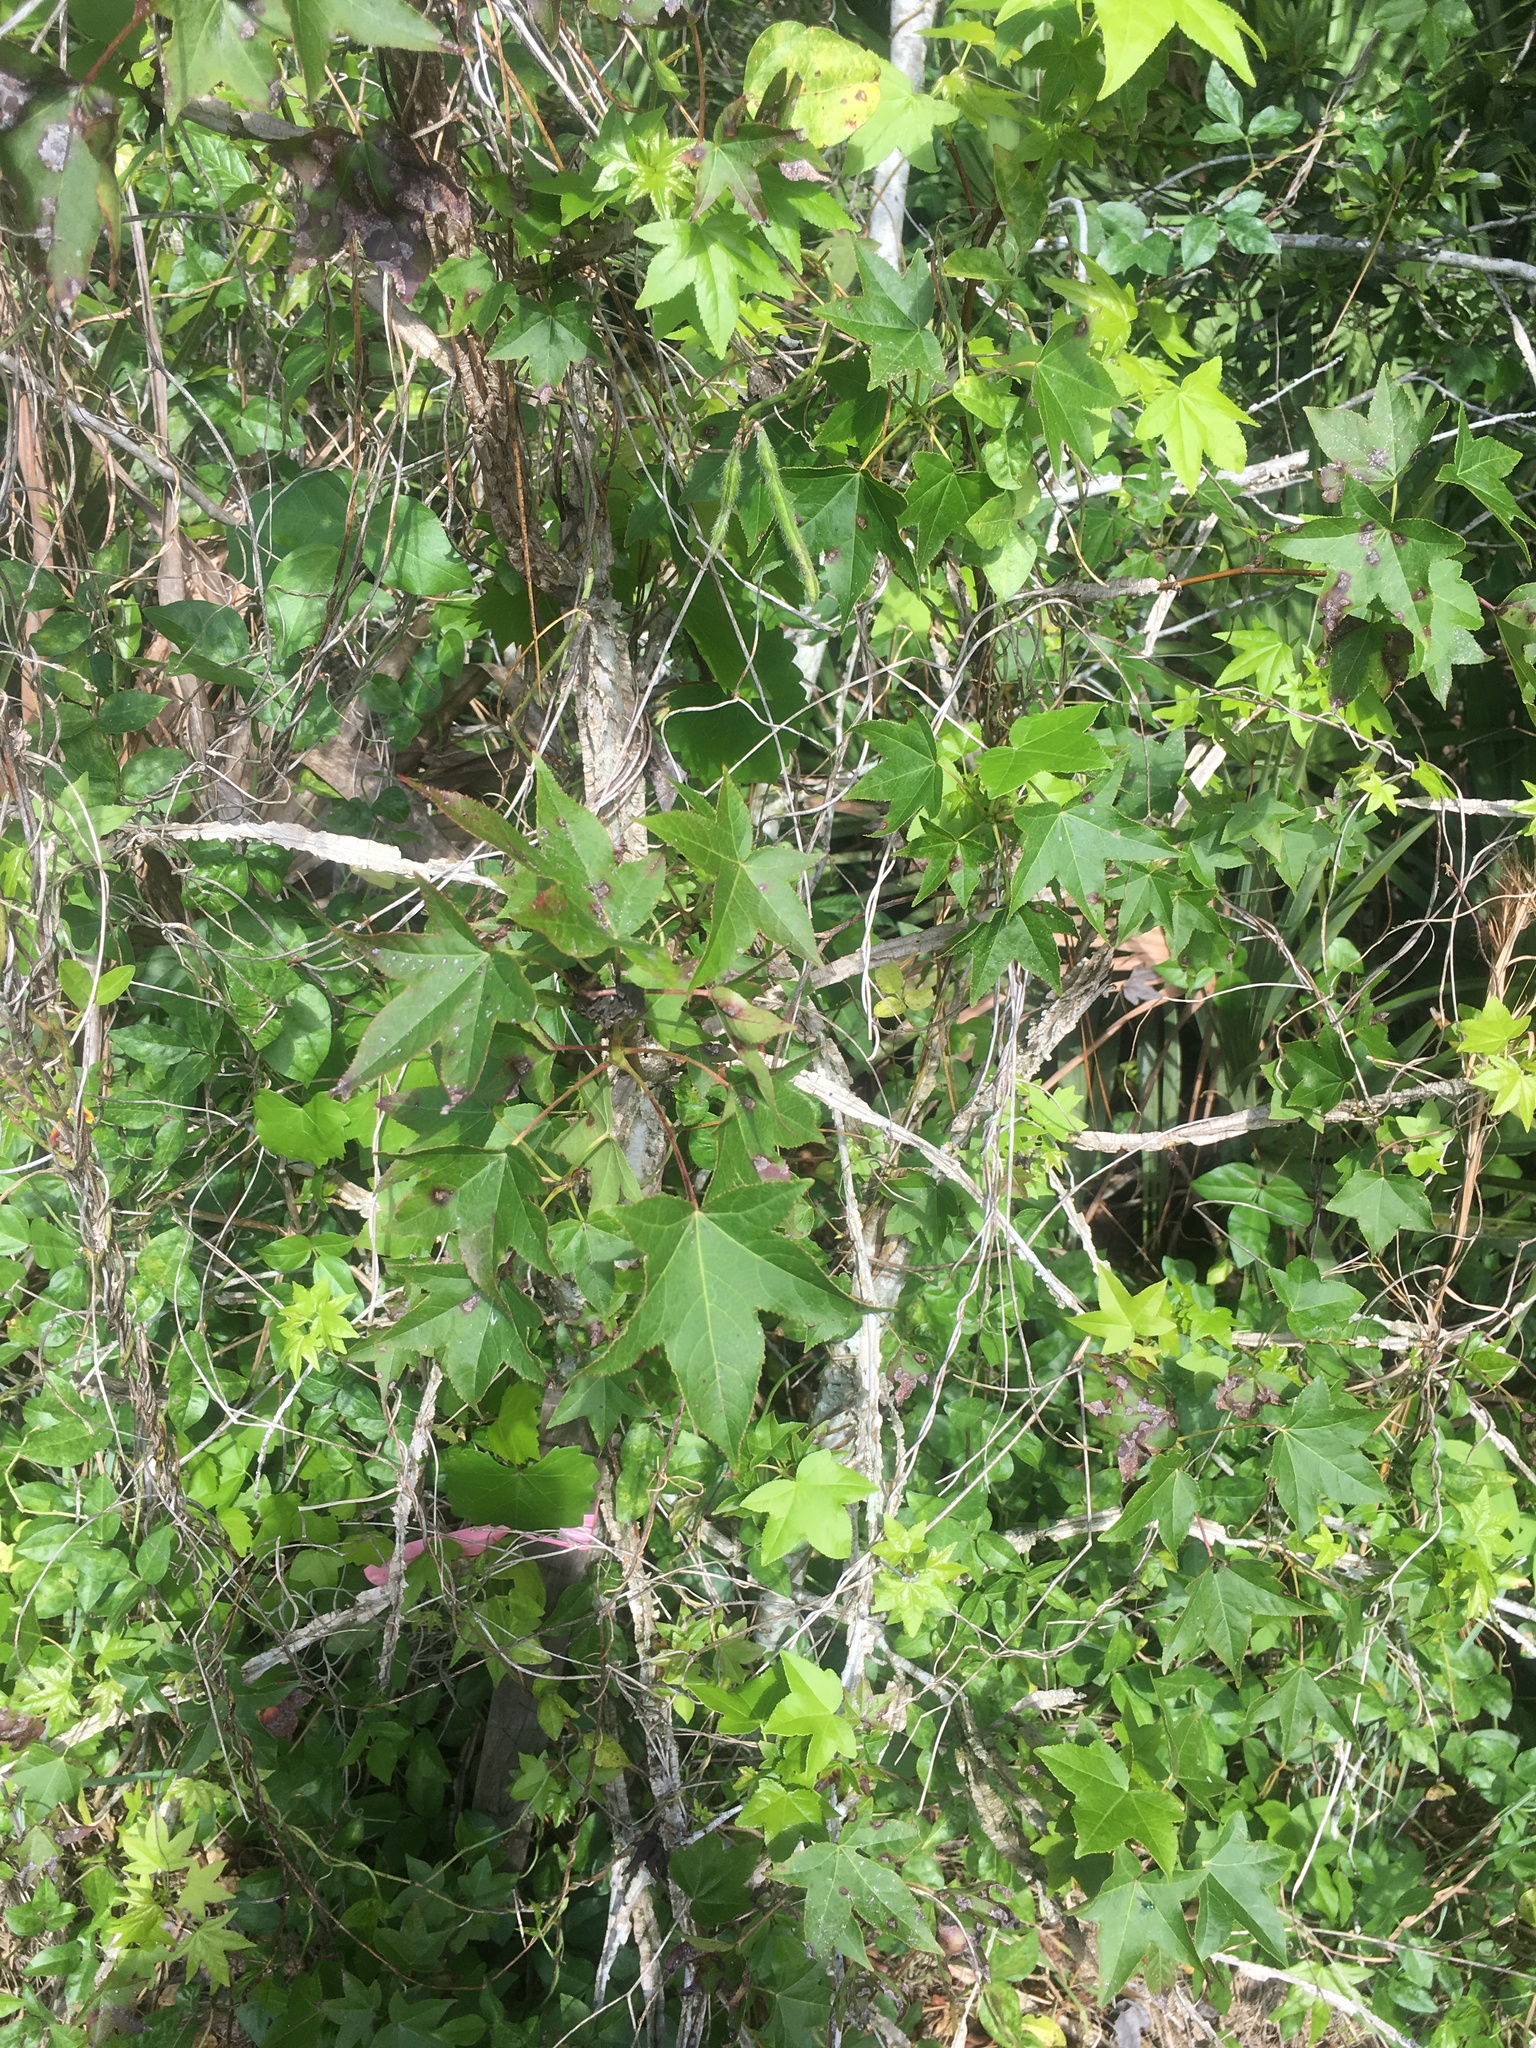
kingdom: Plantae
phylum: Tracheophyta
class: Magnoliopsida
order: Saxifragales
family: Altingiaceae
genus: Liquidambar
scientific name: Liquidambar styraciflua
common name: Sweet gum
